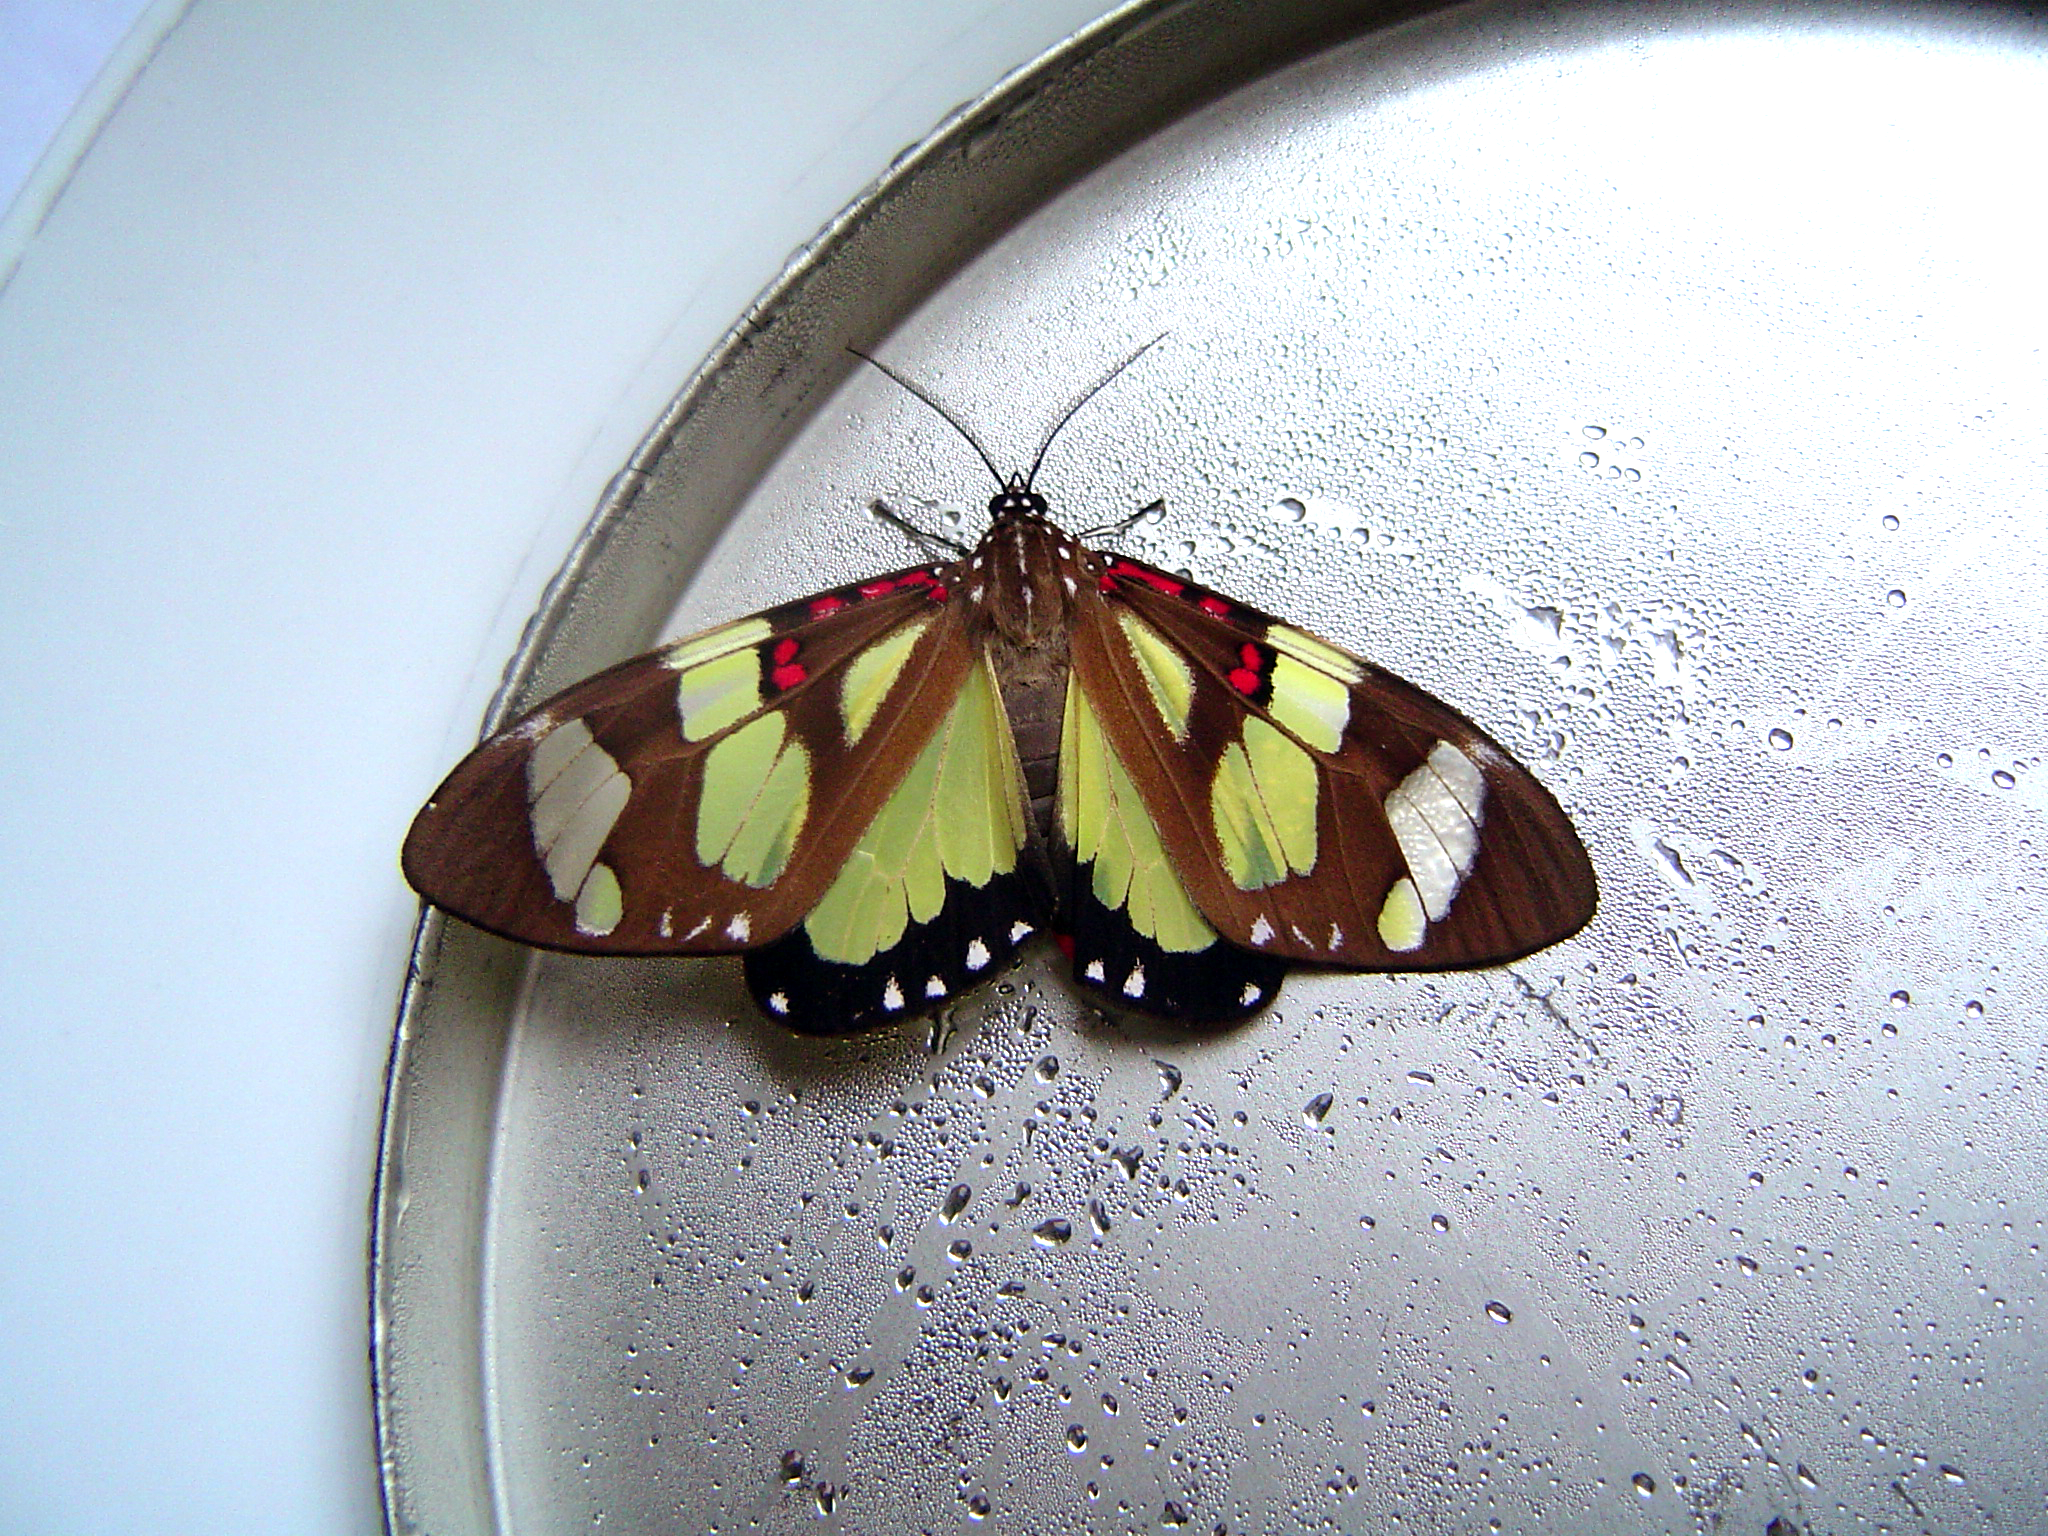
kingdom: Animalia
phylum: Arthropoda
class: Insecta
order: Lepidoptera
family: Erebidae
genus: Phaloe
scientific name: Phaloe cruenta
